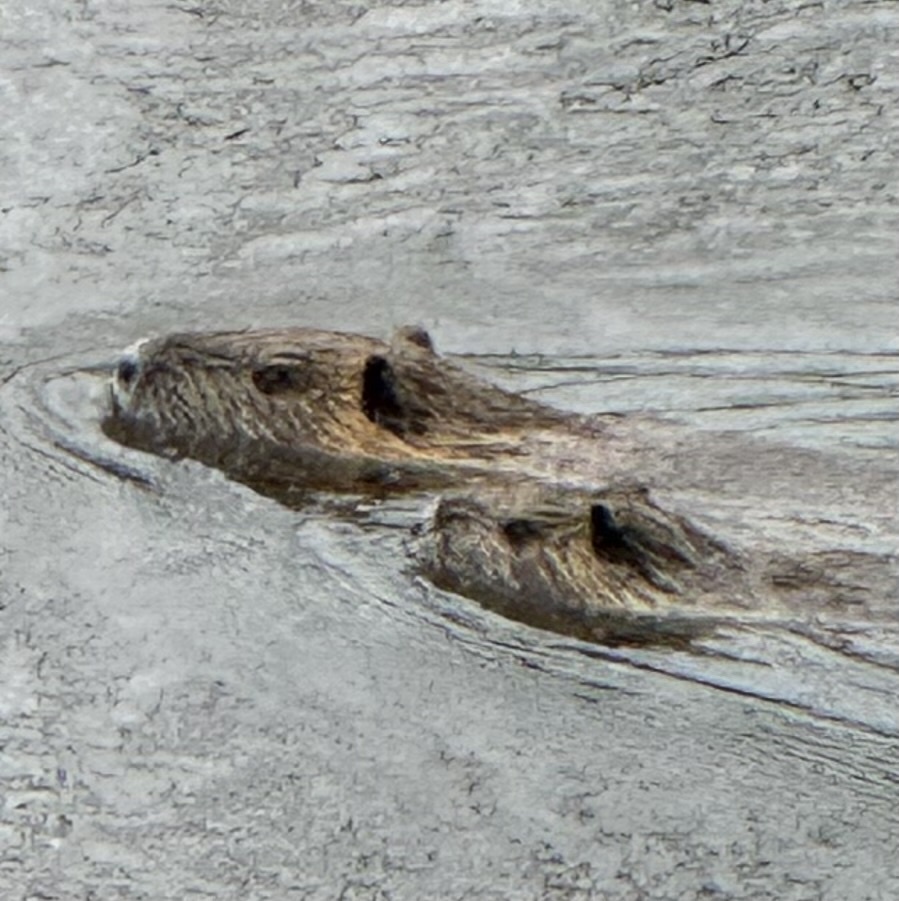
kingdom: Animalia
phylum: Chordata
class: Mammalia
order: Rodentia
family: Myocastoridae
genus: Myocastor
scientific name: Myocastor coypus
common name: Coypu
